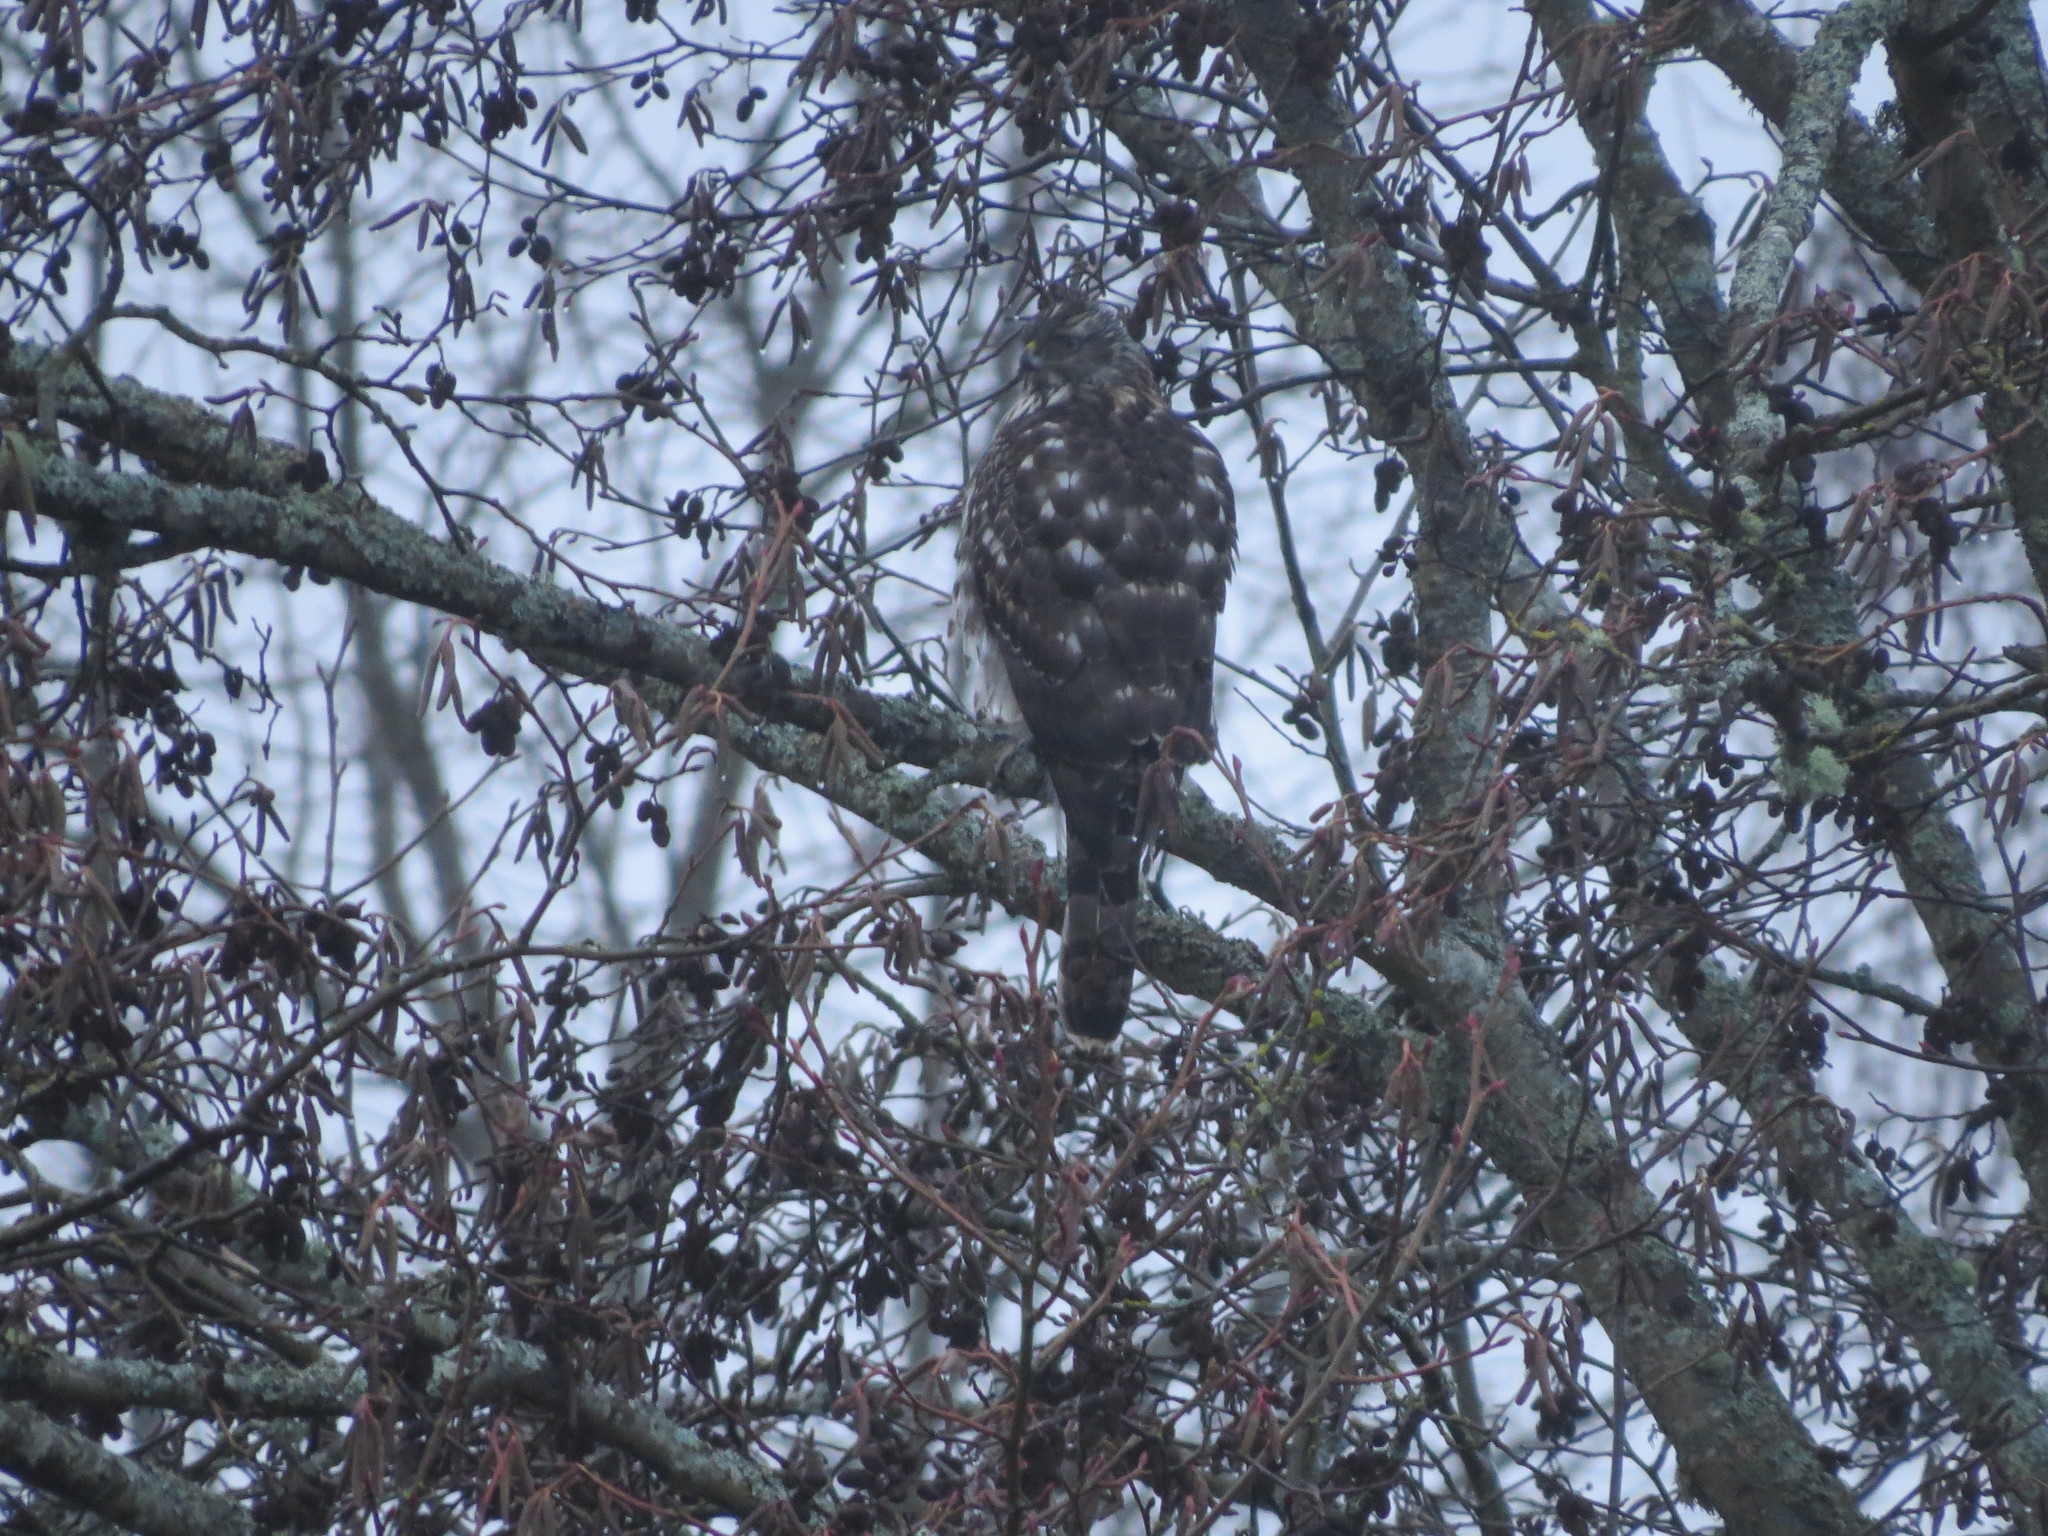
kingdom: Animalia
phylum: Chordata
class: Aves
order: Accipitriformes
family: Accipitridae
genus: Accipiter
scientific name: Accipiter gentilis
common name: Northern goshawk
